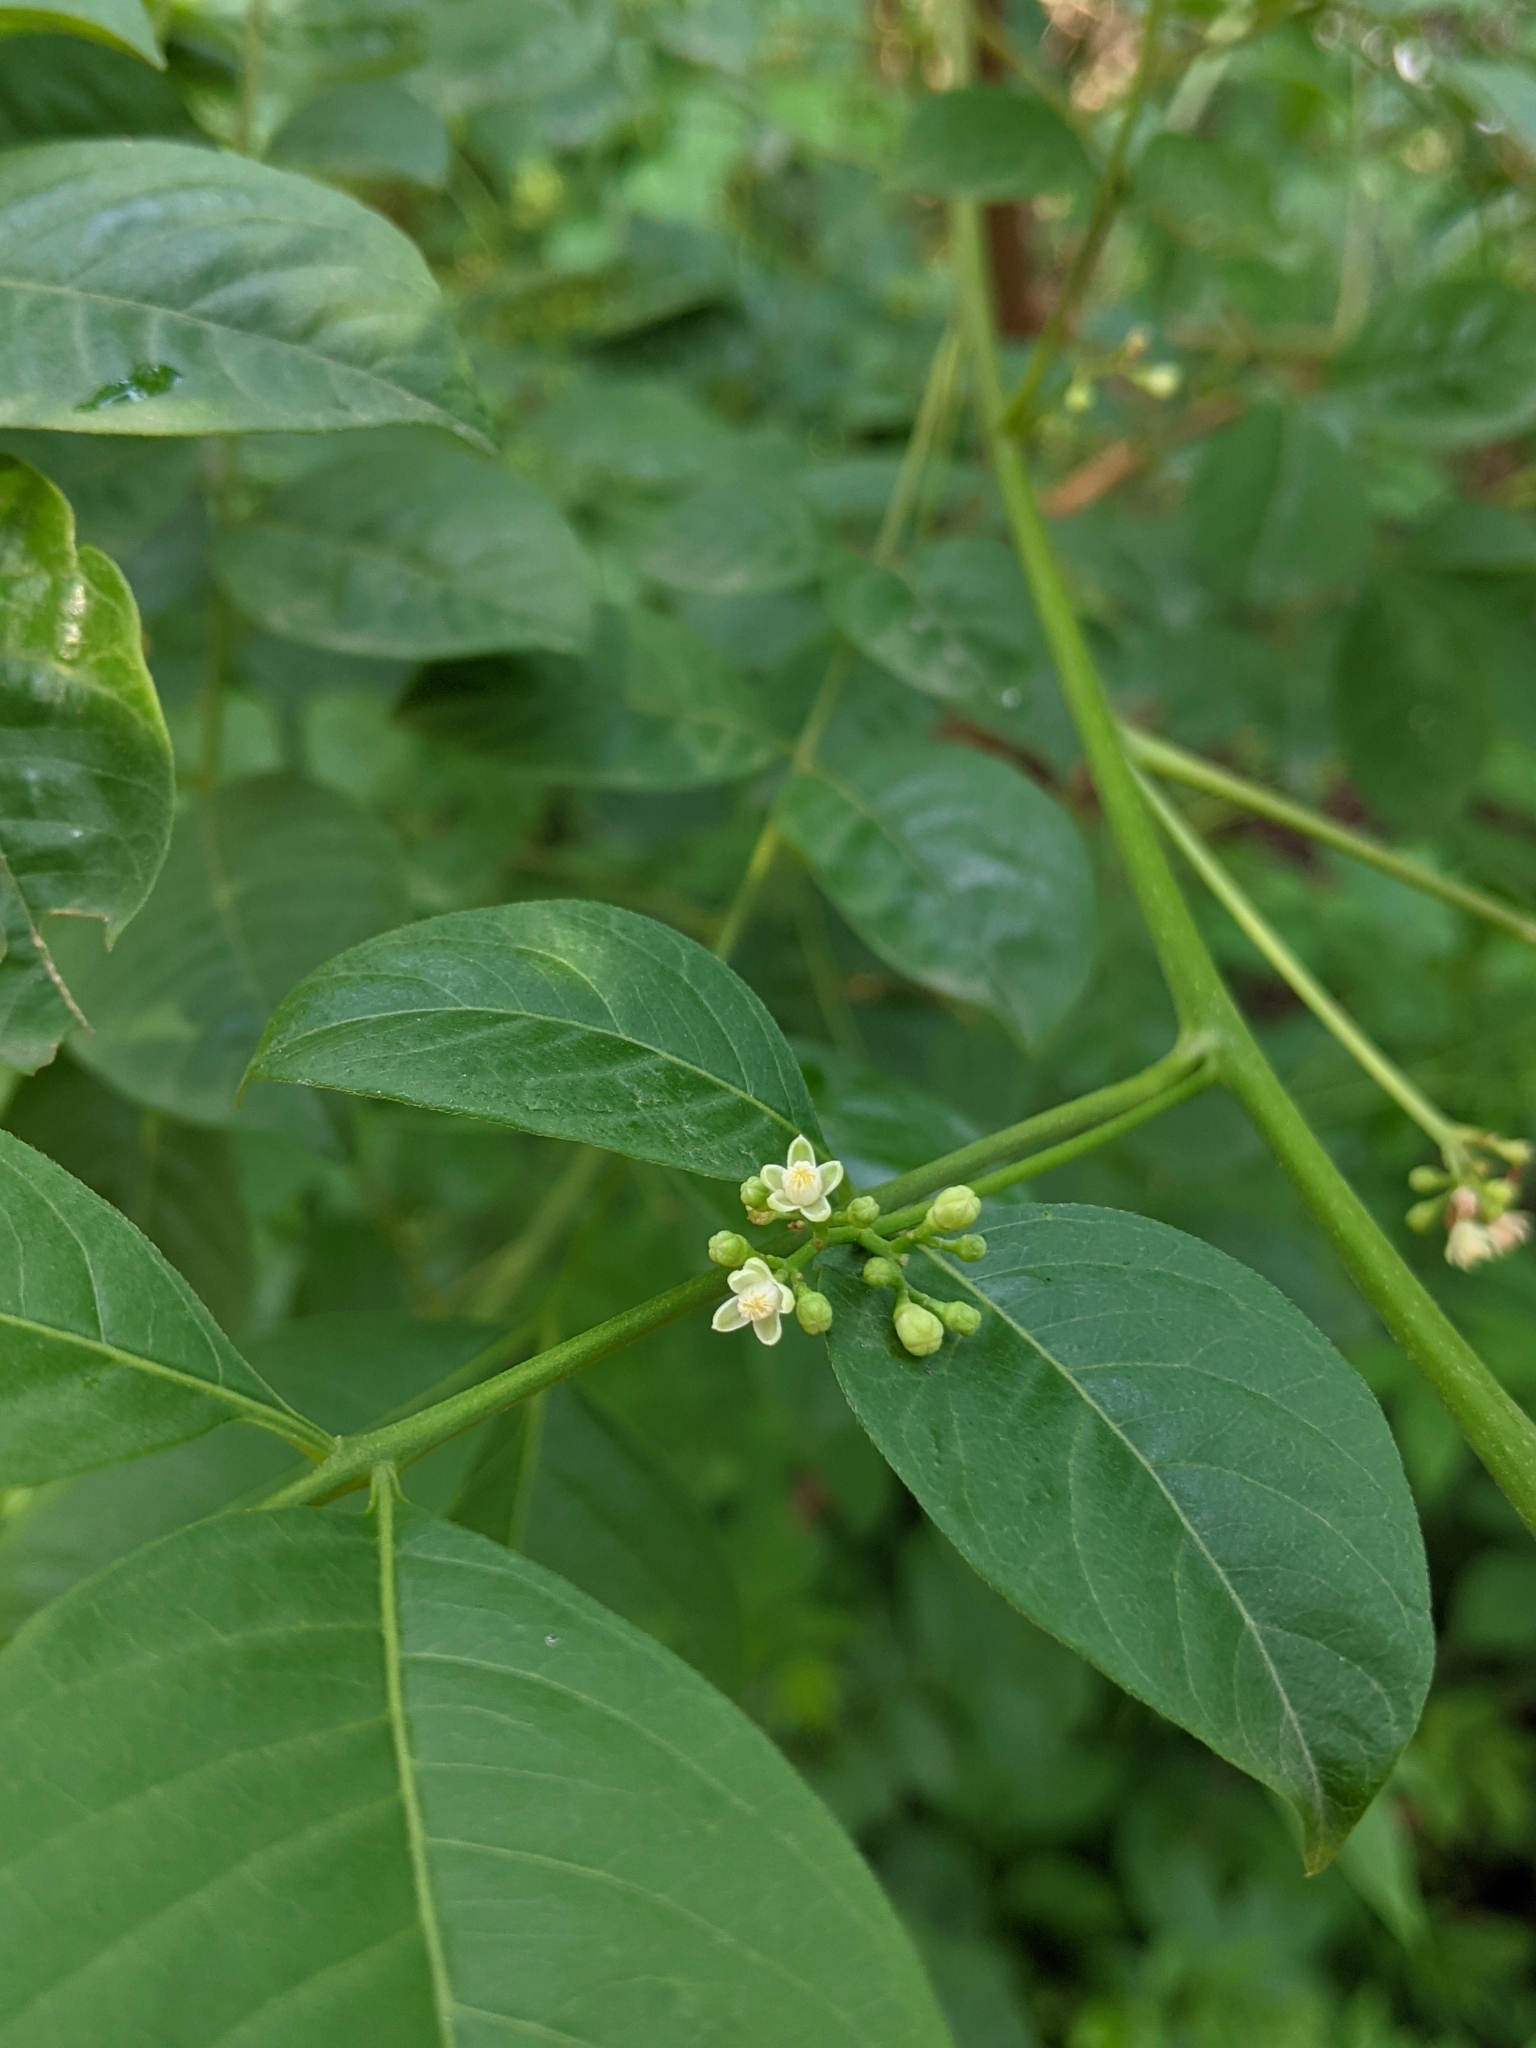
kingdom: Plantae
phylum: Tracheophyta
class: Magnoliopsida
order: Sapindales
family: Meliaceae
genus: Cipadessa
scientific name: Cipadessa baccifera
